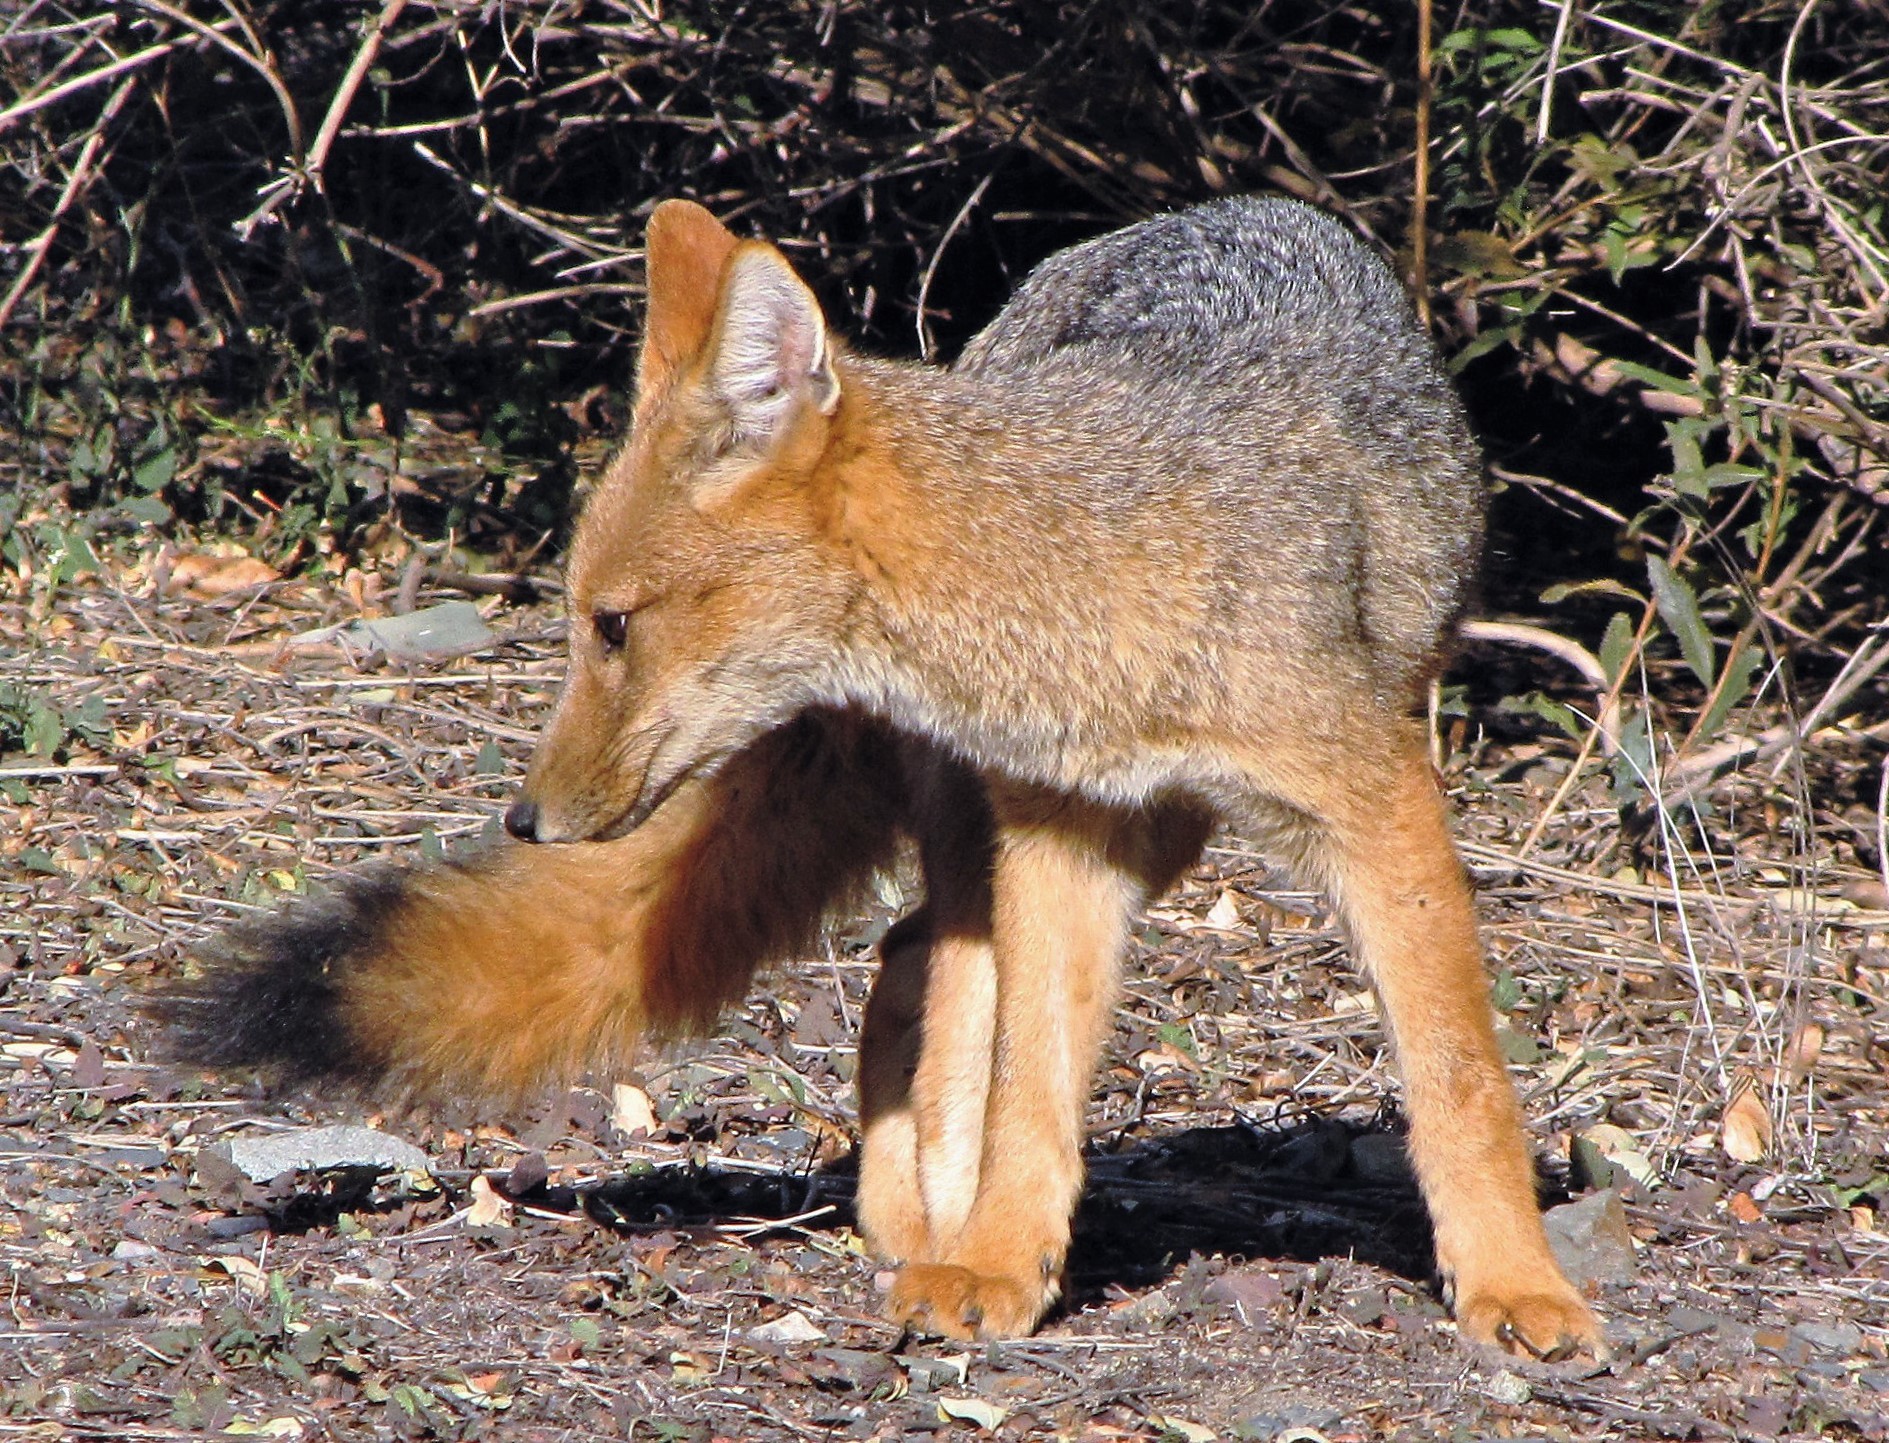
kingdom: Animalia
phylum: Chordata
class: Mammalia
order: Carnivora
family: Canidae
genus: Lycalopex
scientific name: Lycalopex culpaeus
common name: Culpeo
